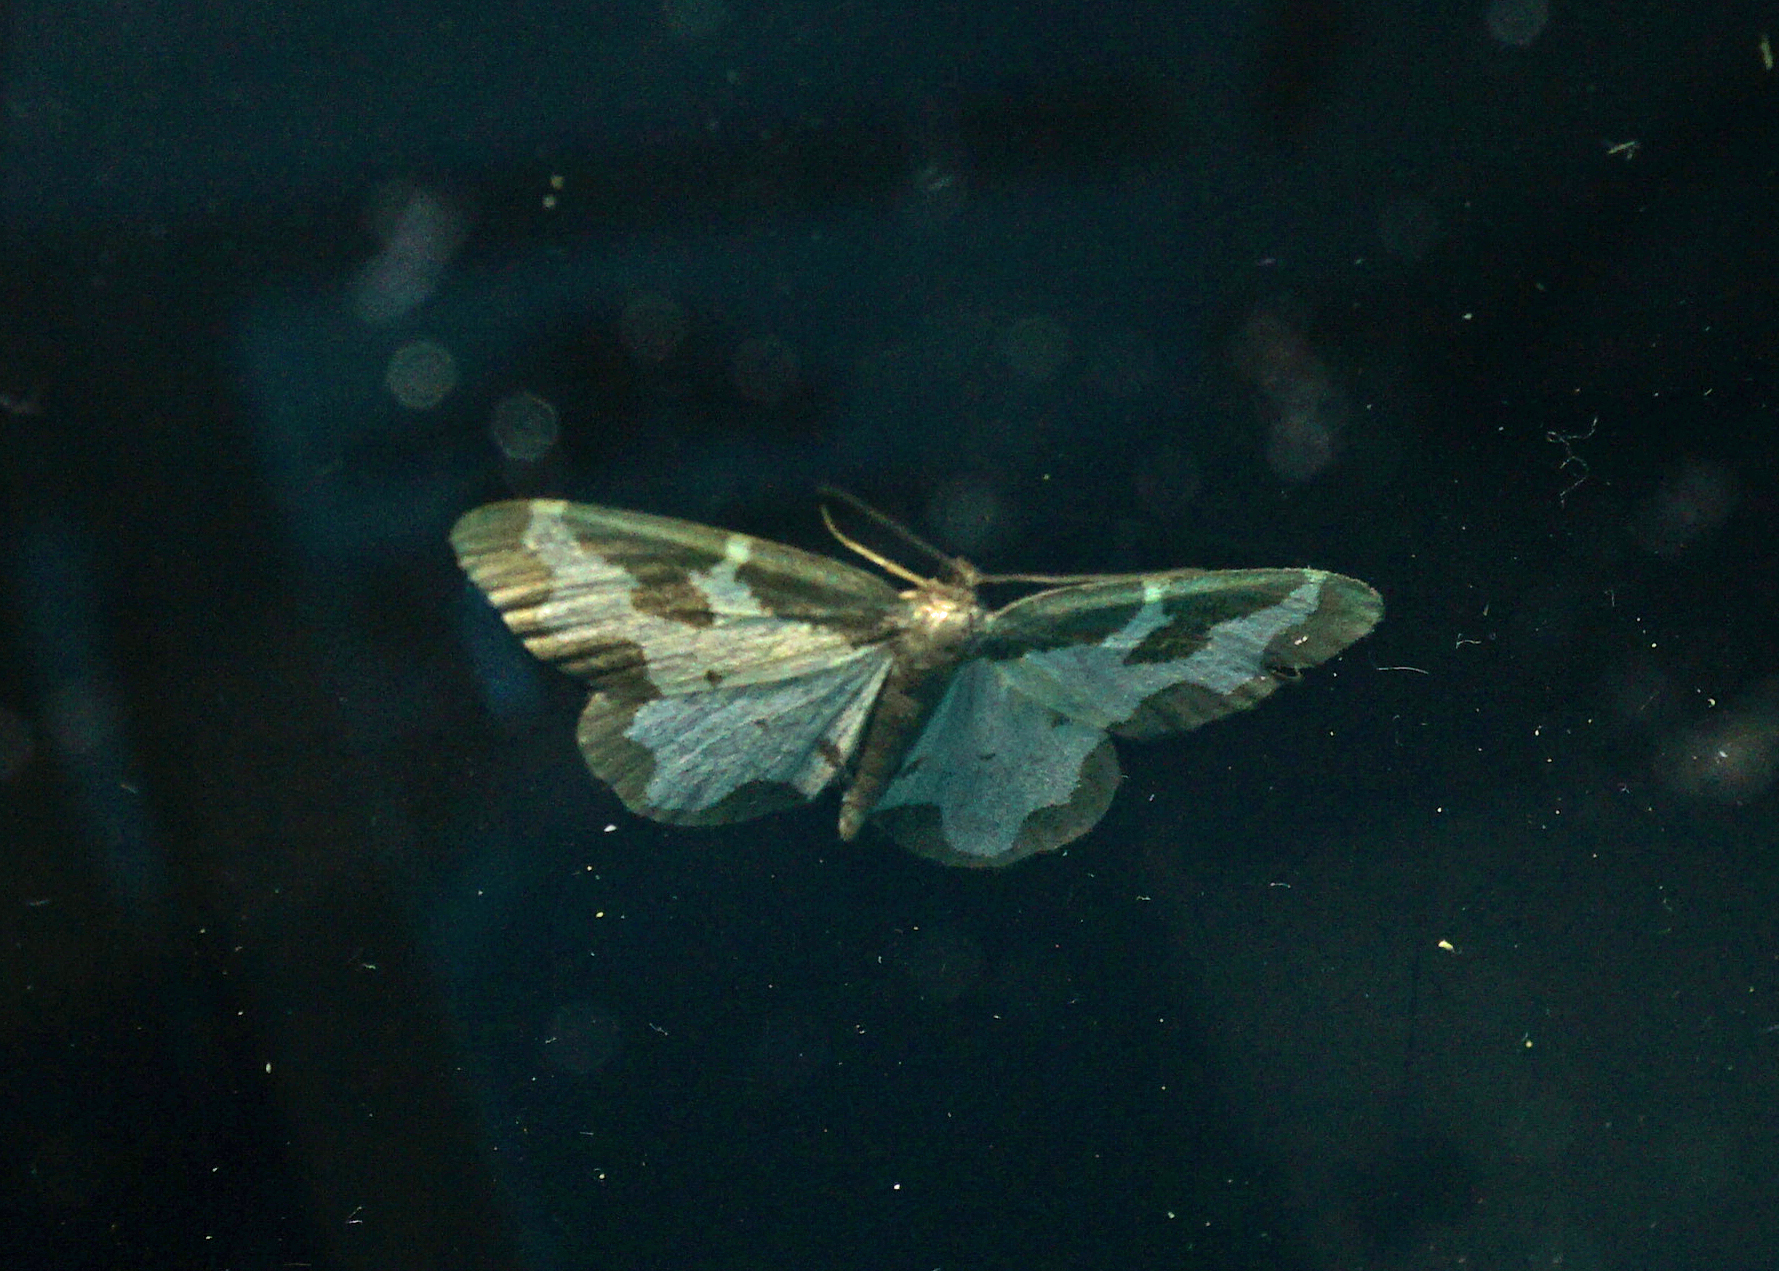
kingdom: Animalia
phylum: Arthropoda
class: Insecta
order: Lepidoptera
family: Geometridae
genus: Lomaspilis
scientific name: Lomaspilis marginata
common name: Clouded border
